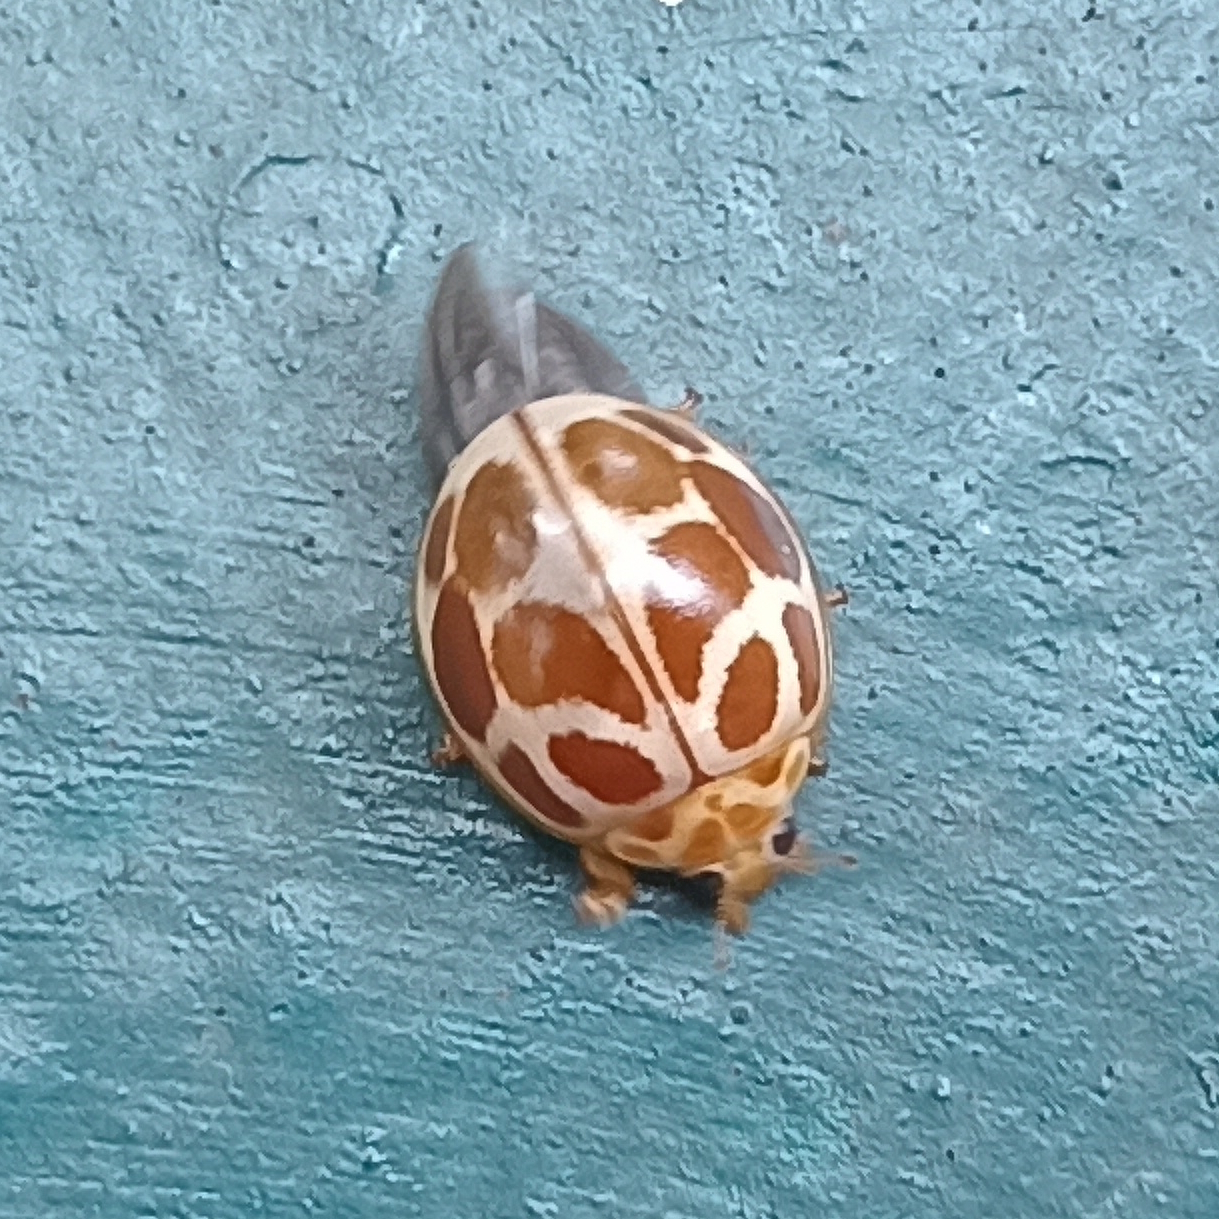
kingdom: Animalia
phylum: Arthropoda
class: Insecta
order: Coleoptera
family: Coccinellidae
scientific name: Coccinellidae
